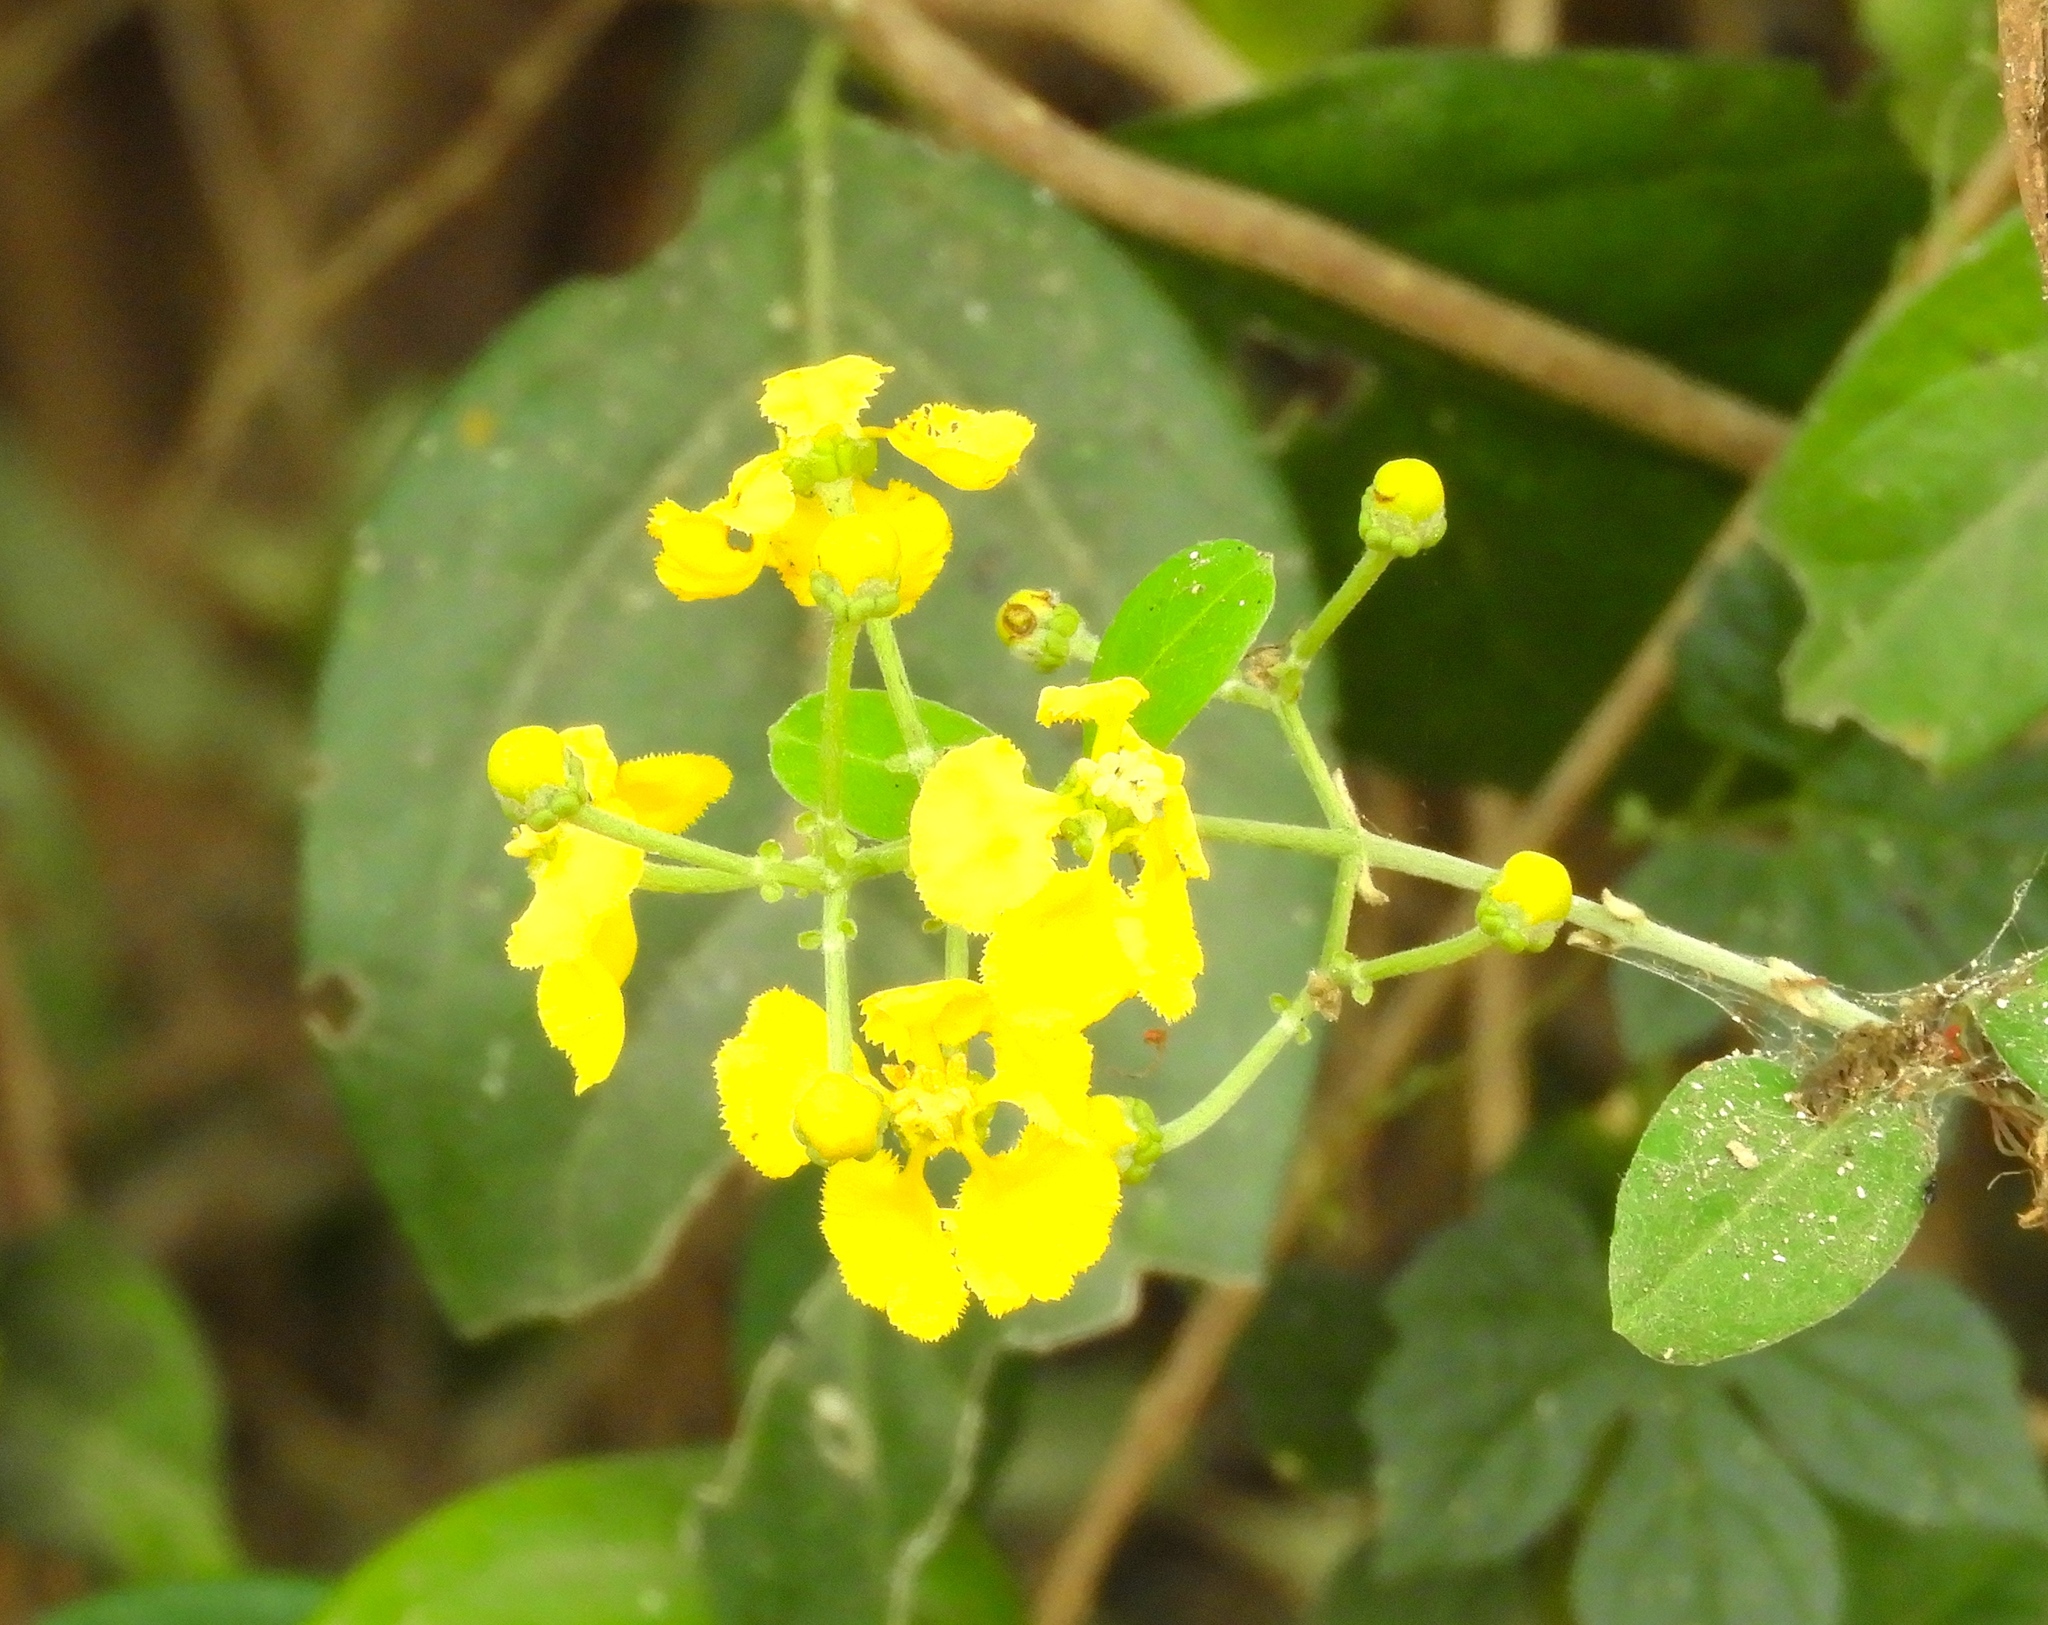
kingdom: Plantae
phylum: Tracheophyta
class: Magnoliopsida
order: Malpighiales
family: Malpighiaceae
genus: Callaeum
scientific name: Callaeum macropterum
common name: Mexican butterfly-vine
